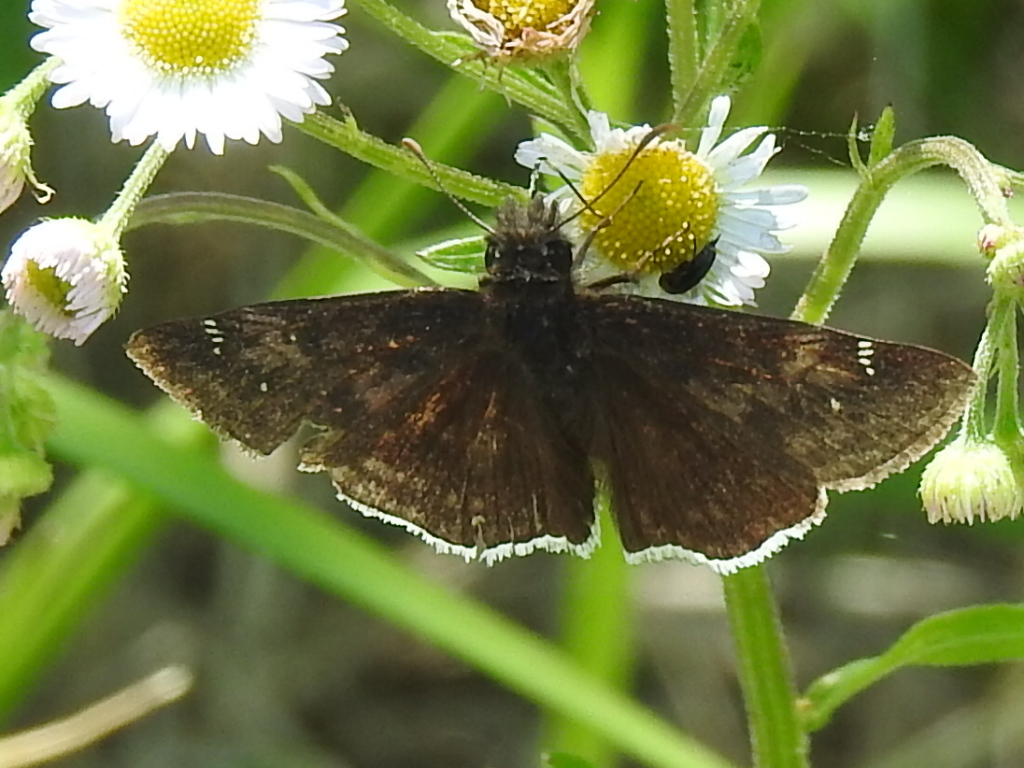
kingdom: Animalia
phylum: Arthropoda
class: Insecta
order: Lepidoptera
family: Hesperiidae
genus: Erynnis
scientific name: Erynnis funeralis
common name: Funereal duskywing
